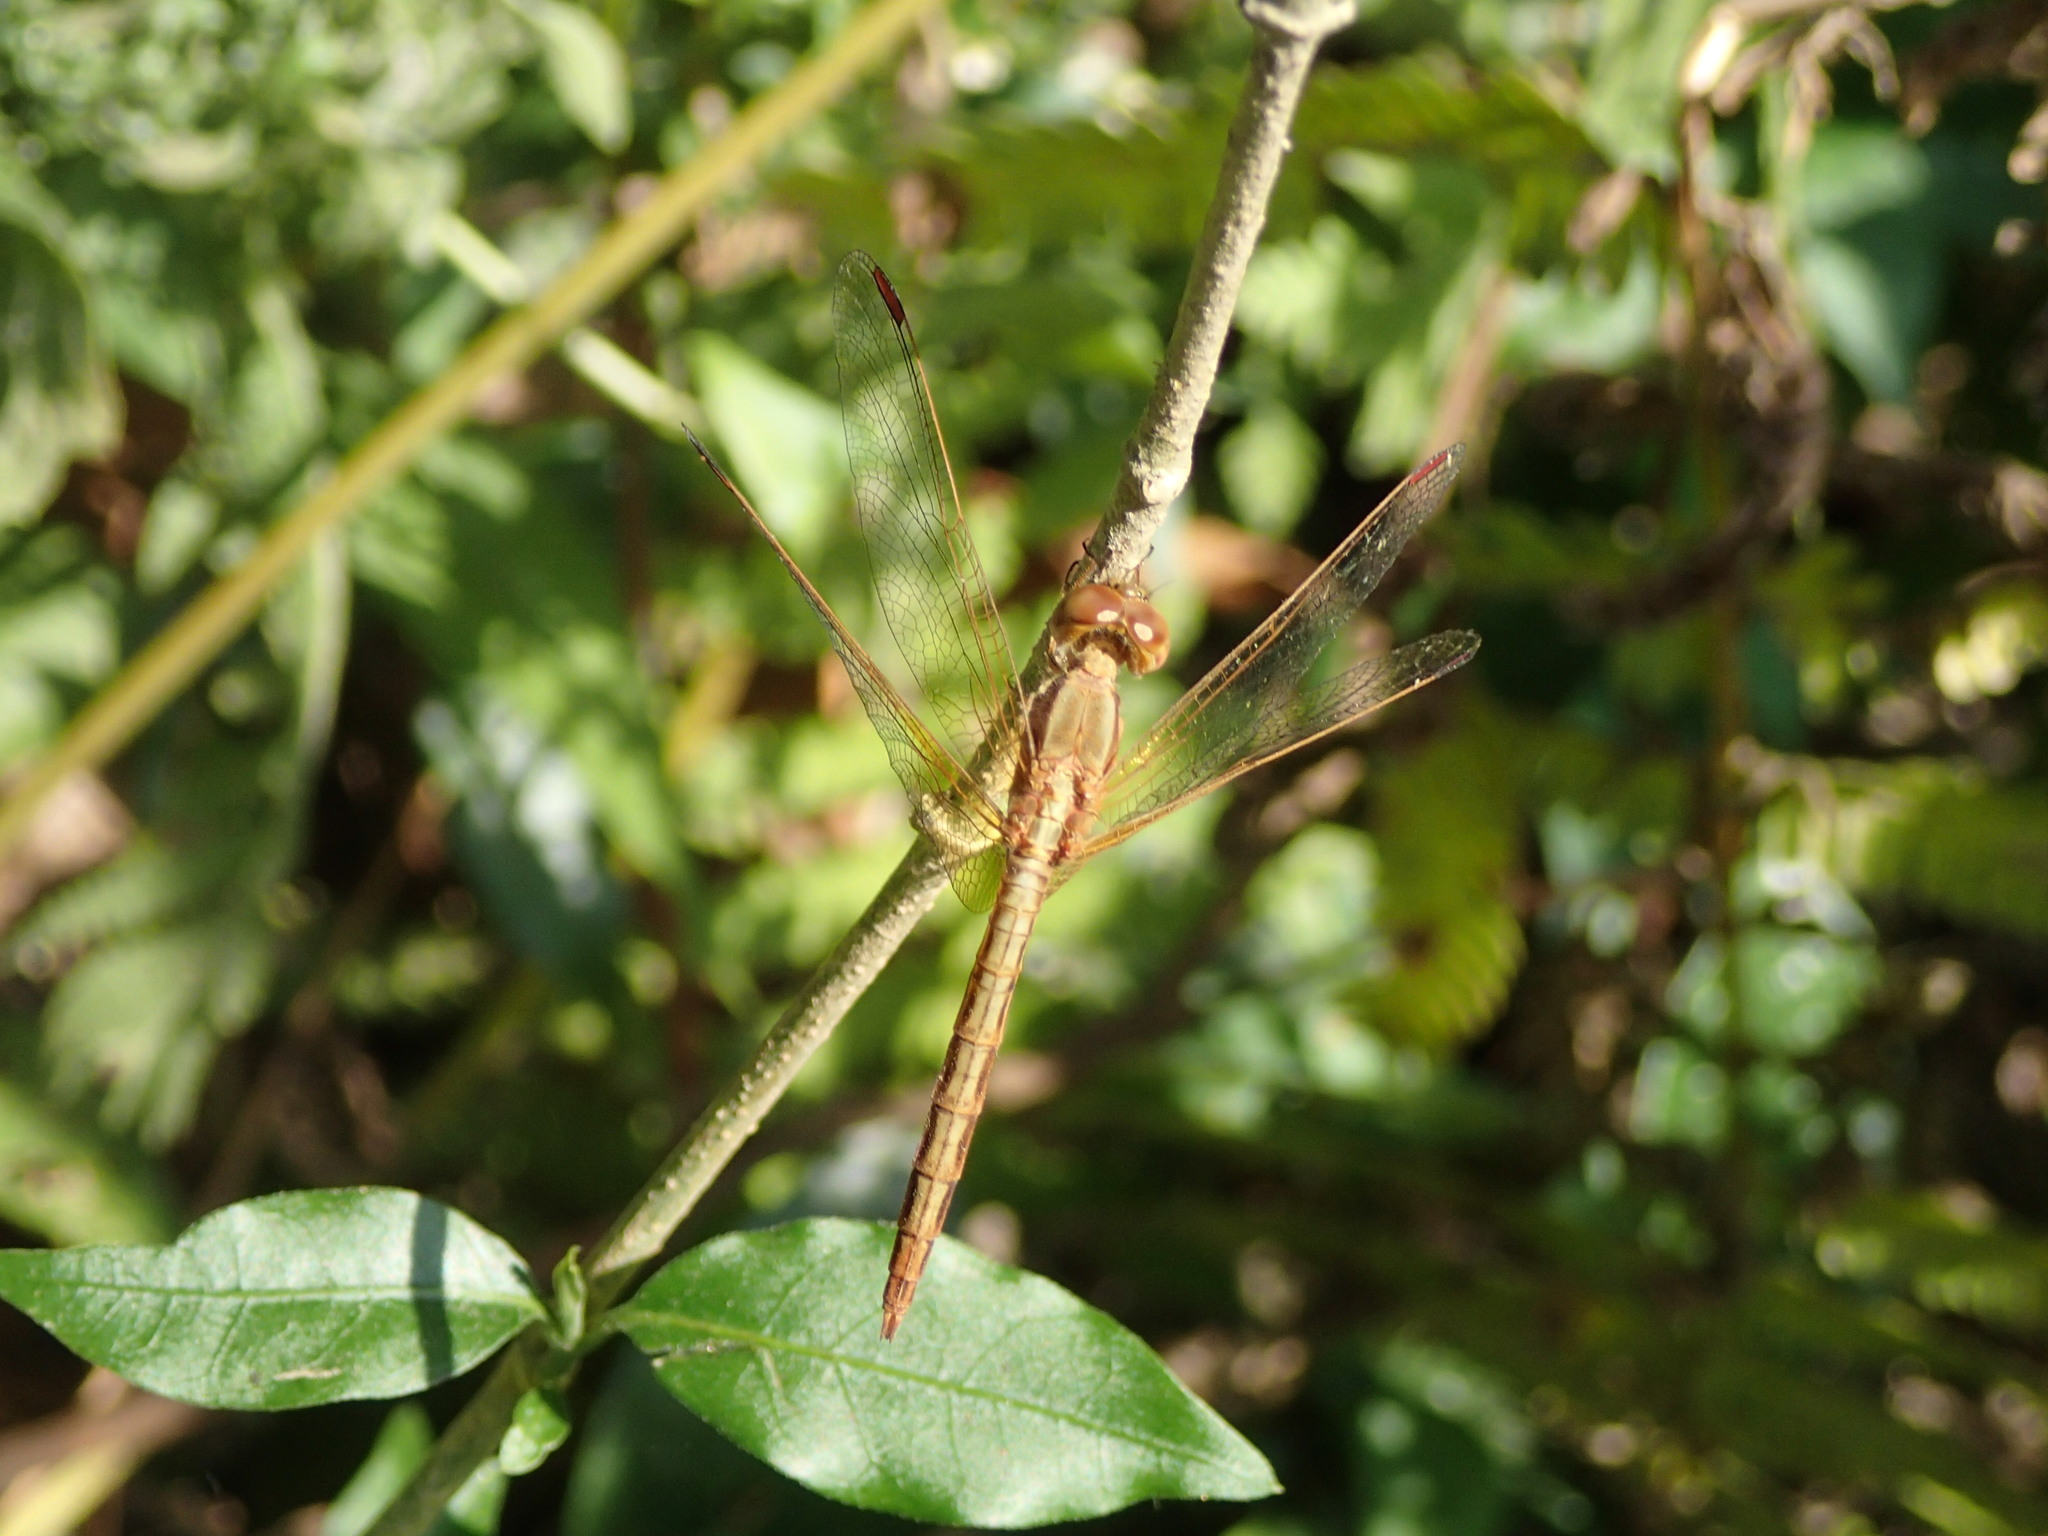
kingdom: Animalia
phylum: Arthropoda
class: Insecta
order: Odonata
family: Libellulidae
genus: Neurothemis
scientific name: Neurothemis intermedia
